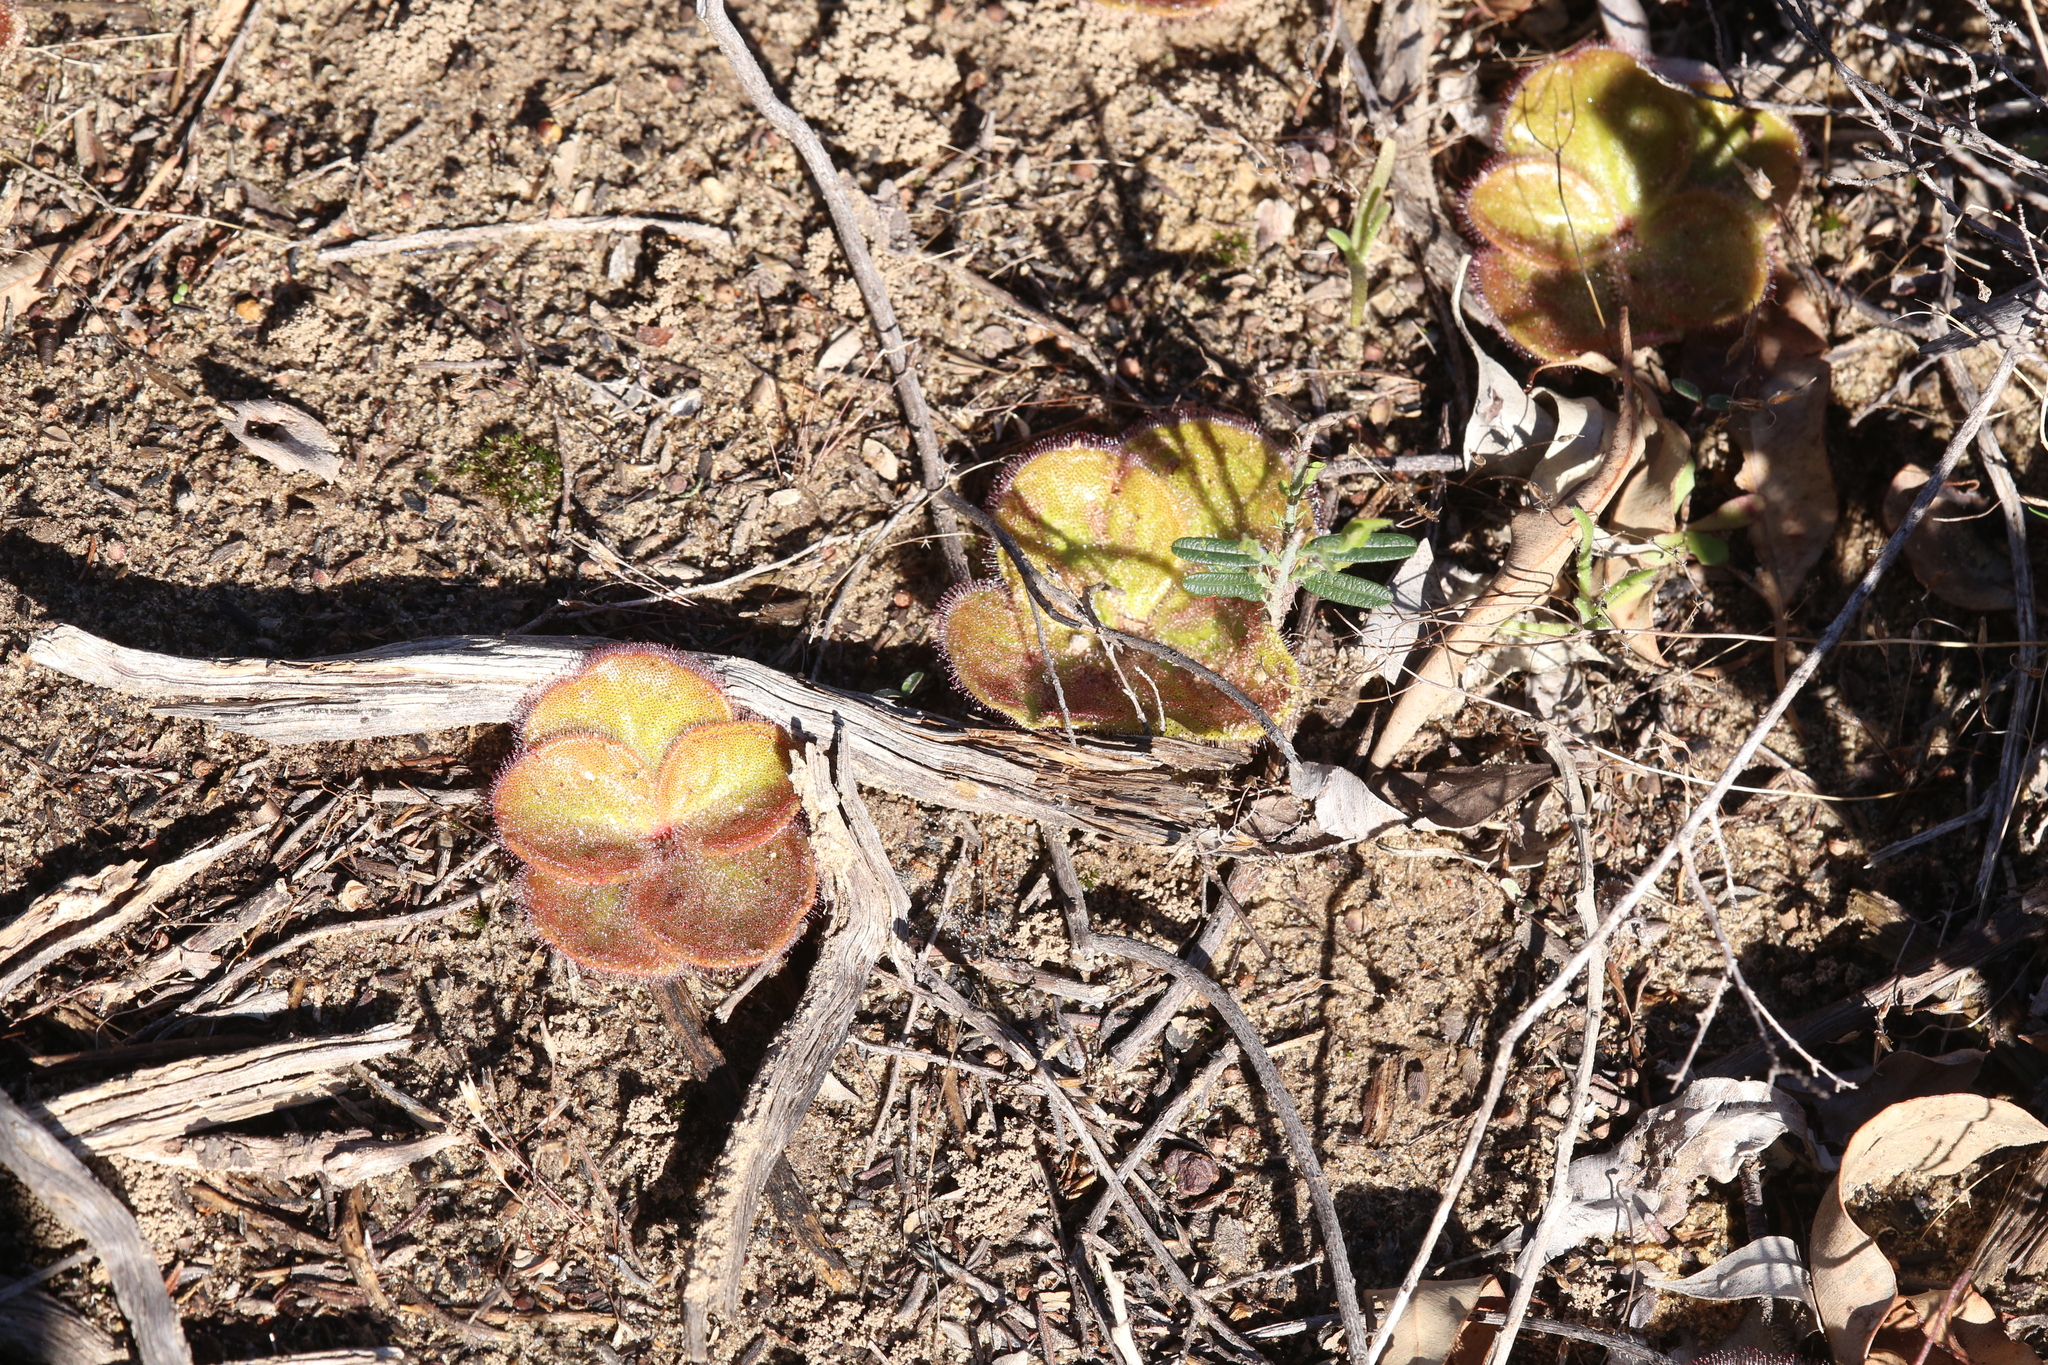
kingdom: Plantae
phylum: Tracheophyta
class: Magnoliopsida
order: Caryophyllales
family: Droseraceae
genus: Drosera
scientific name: Drosera erythrorhiza
